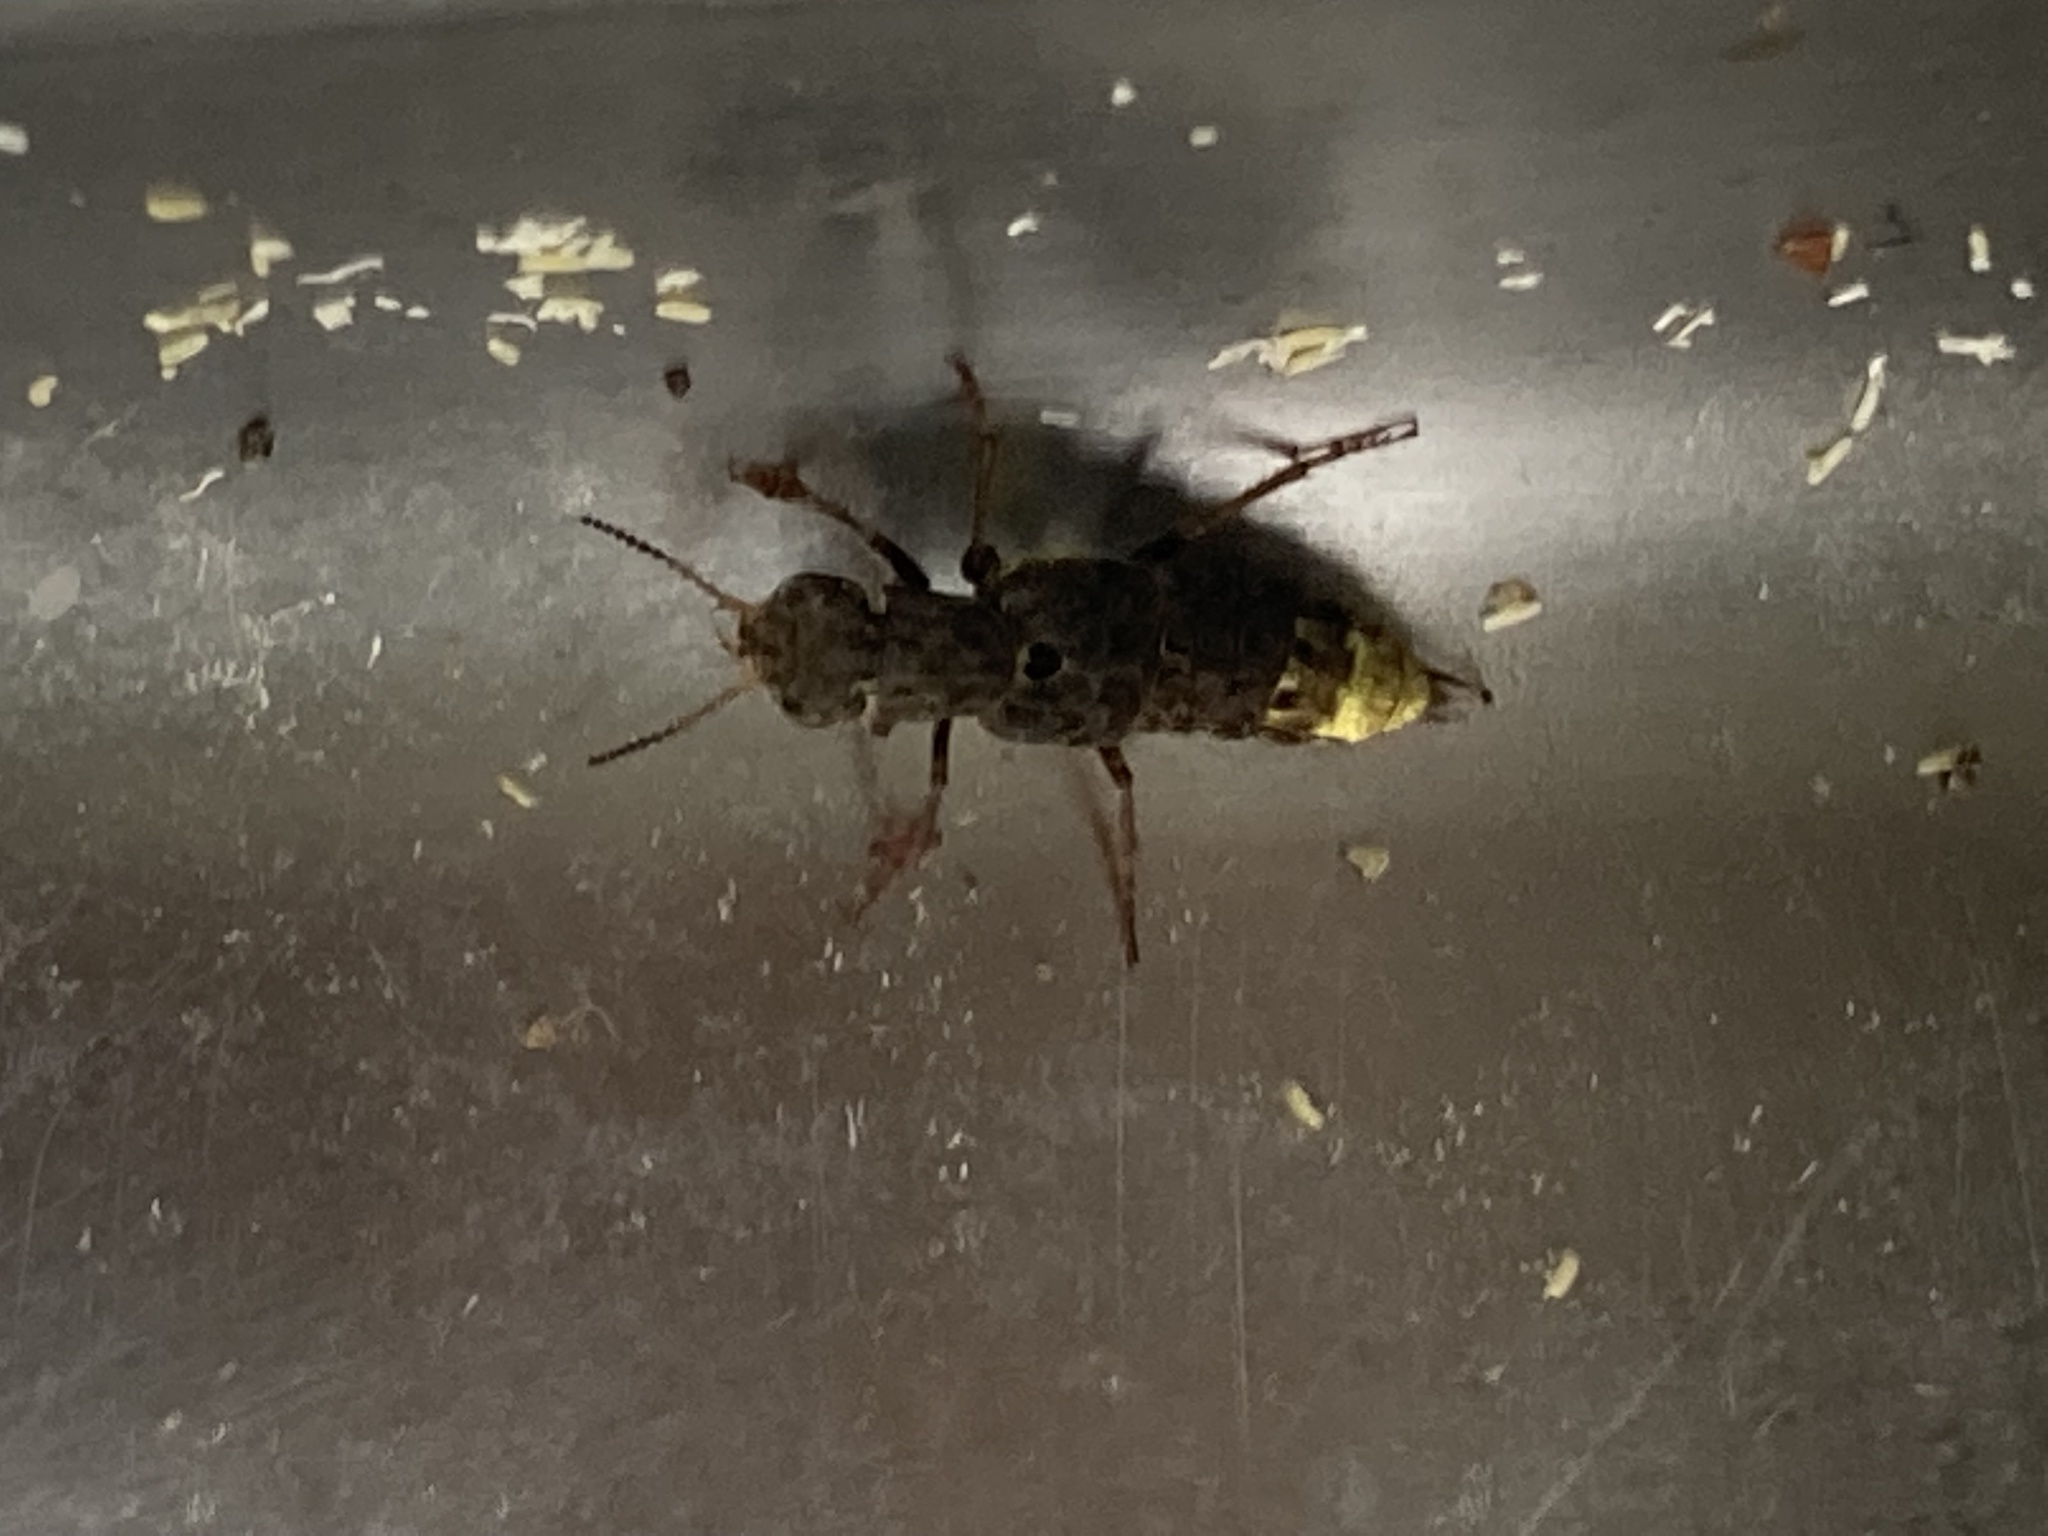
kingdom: Animalia
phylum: Arthropoda
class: Insecta
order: Coleoptera
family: Staphylinidae
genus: Ontholestes
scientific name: Ontholestes cingulatus
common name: Gold-and-brown rove beetle
